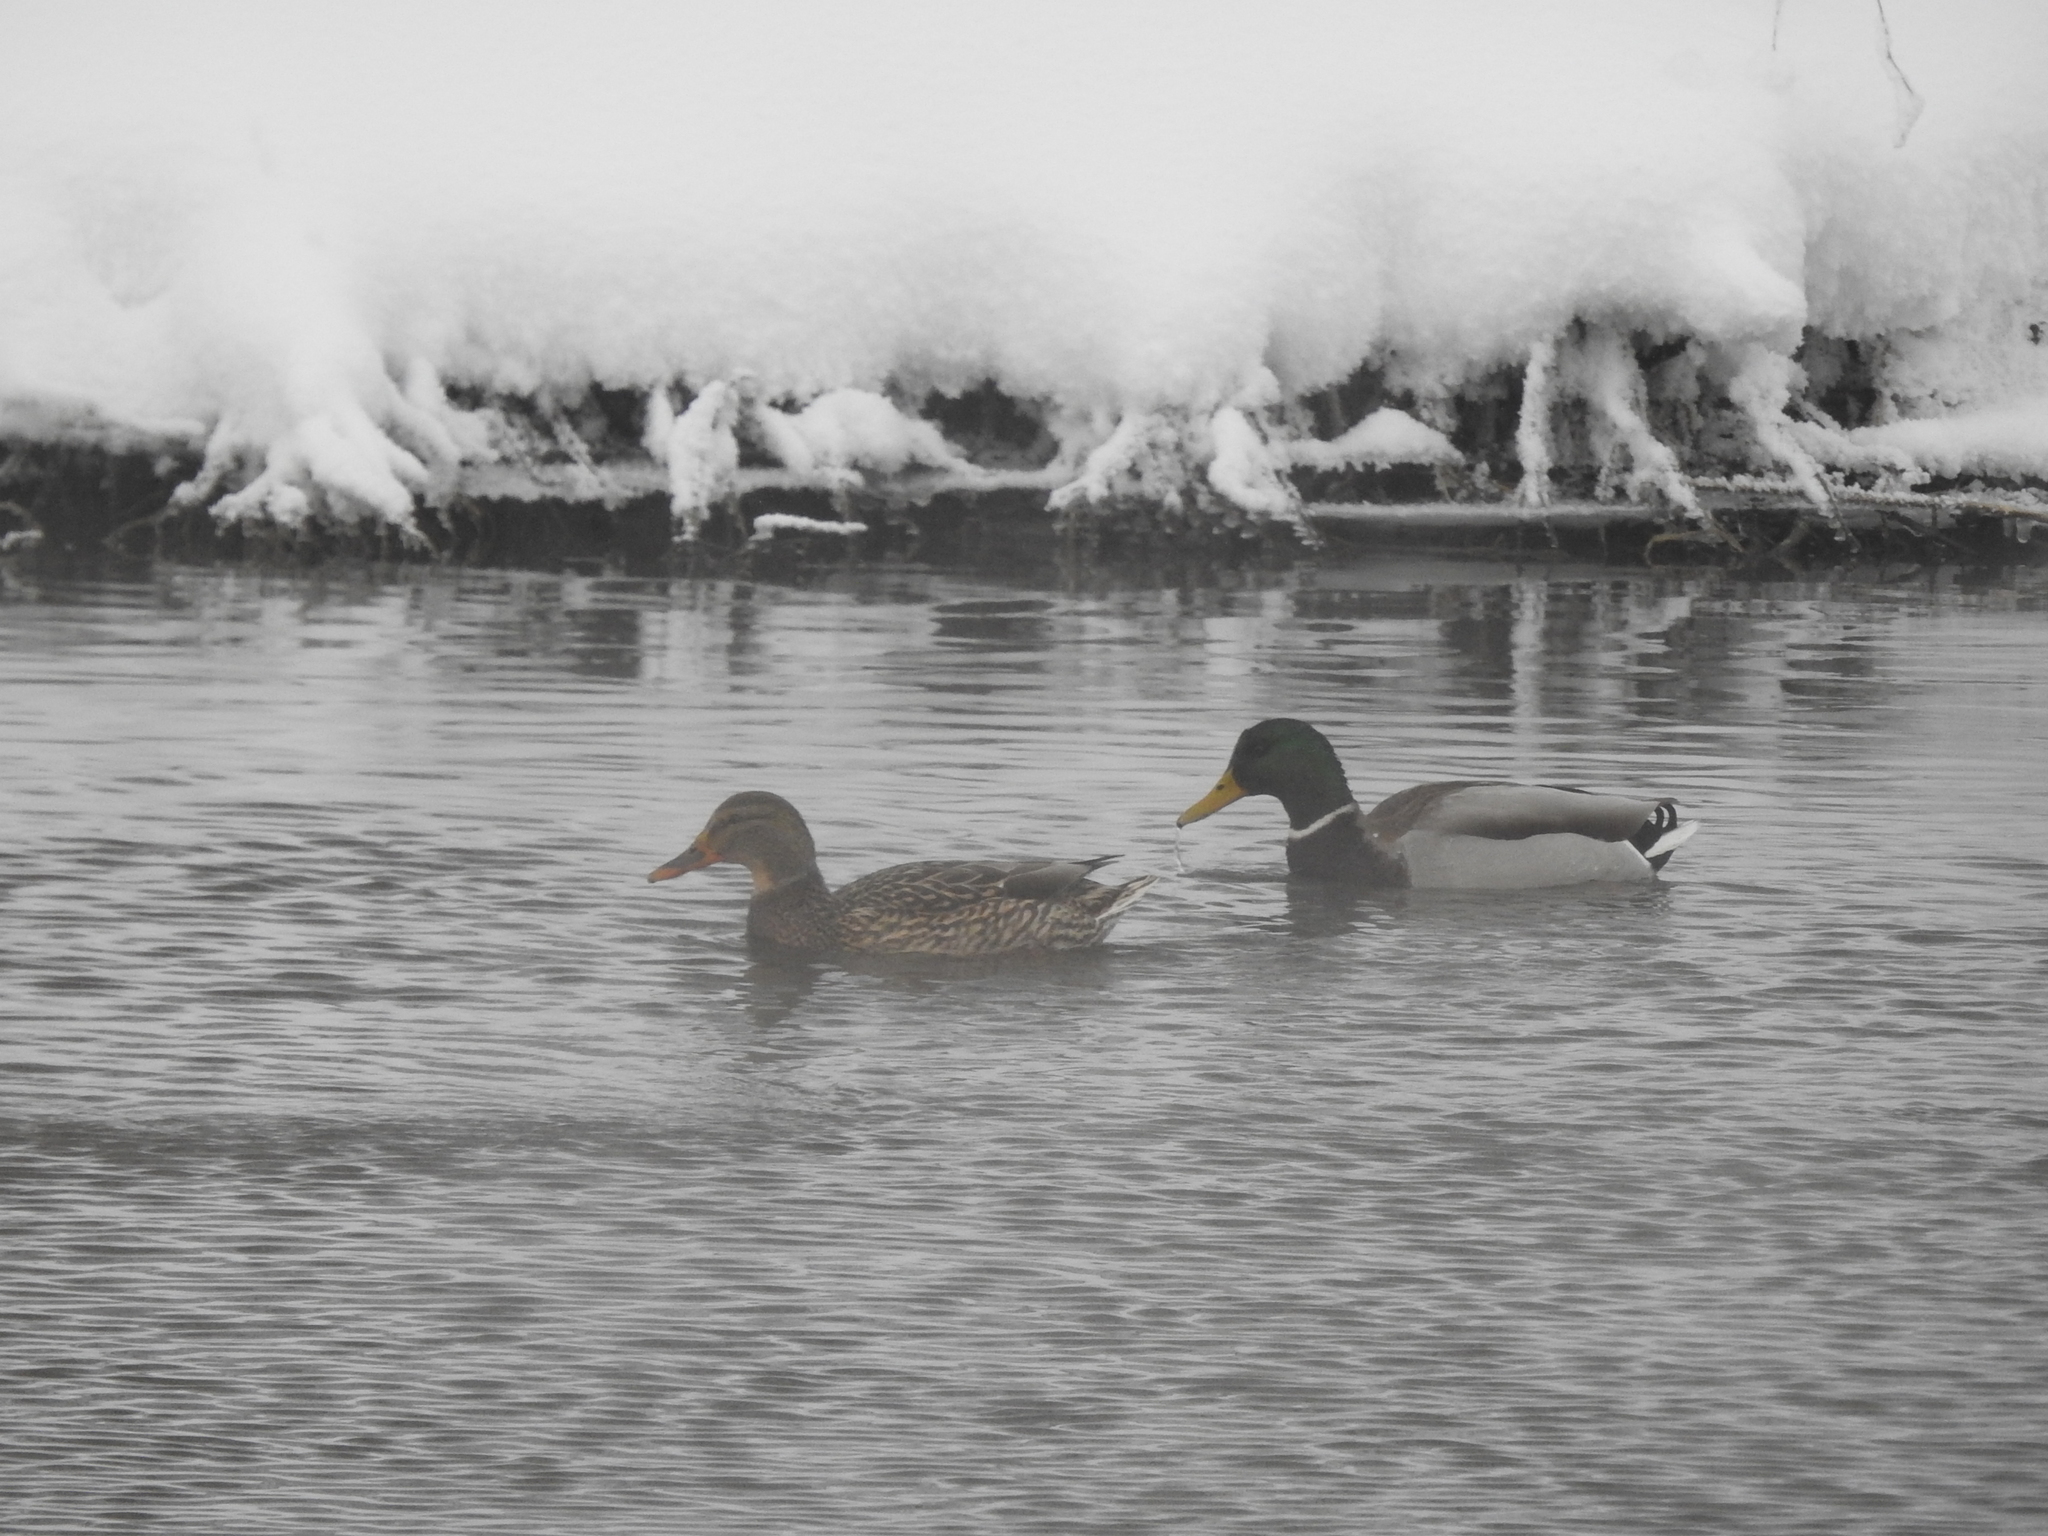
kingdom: Animalia
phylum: Chordata
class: Aves
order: Anseriformes
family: Anatidae
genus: Anas
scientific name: Anas platyrhynchos
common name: Mallard
